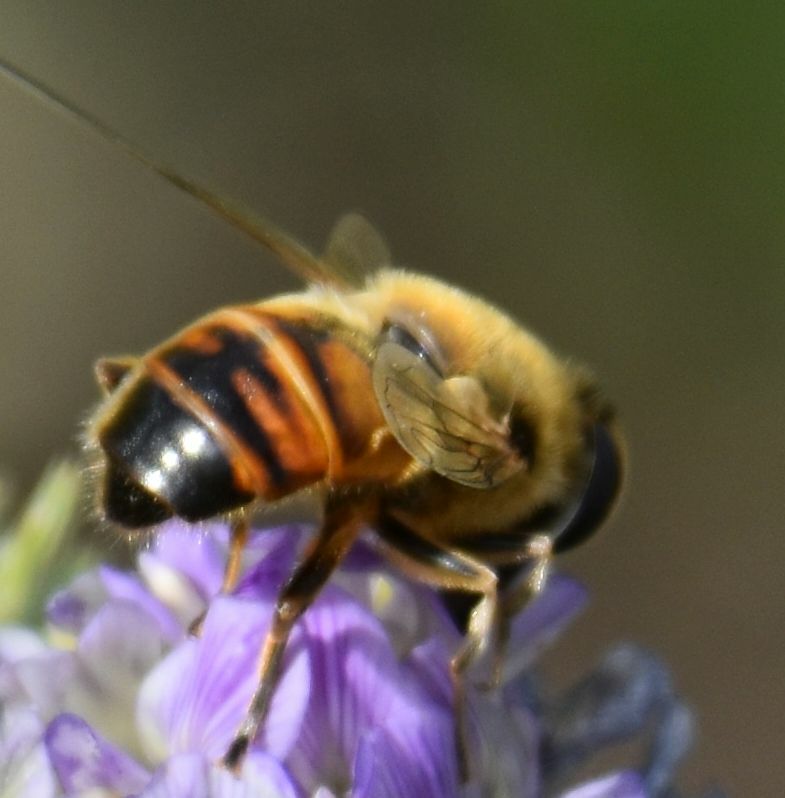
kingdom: Animalia
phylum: Arthropoda
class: Insecta
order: Diptera
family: Syrphidae
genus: Eristalis
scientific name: Eristalis tenax
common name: Drone fly
